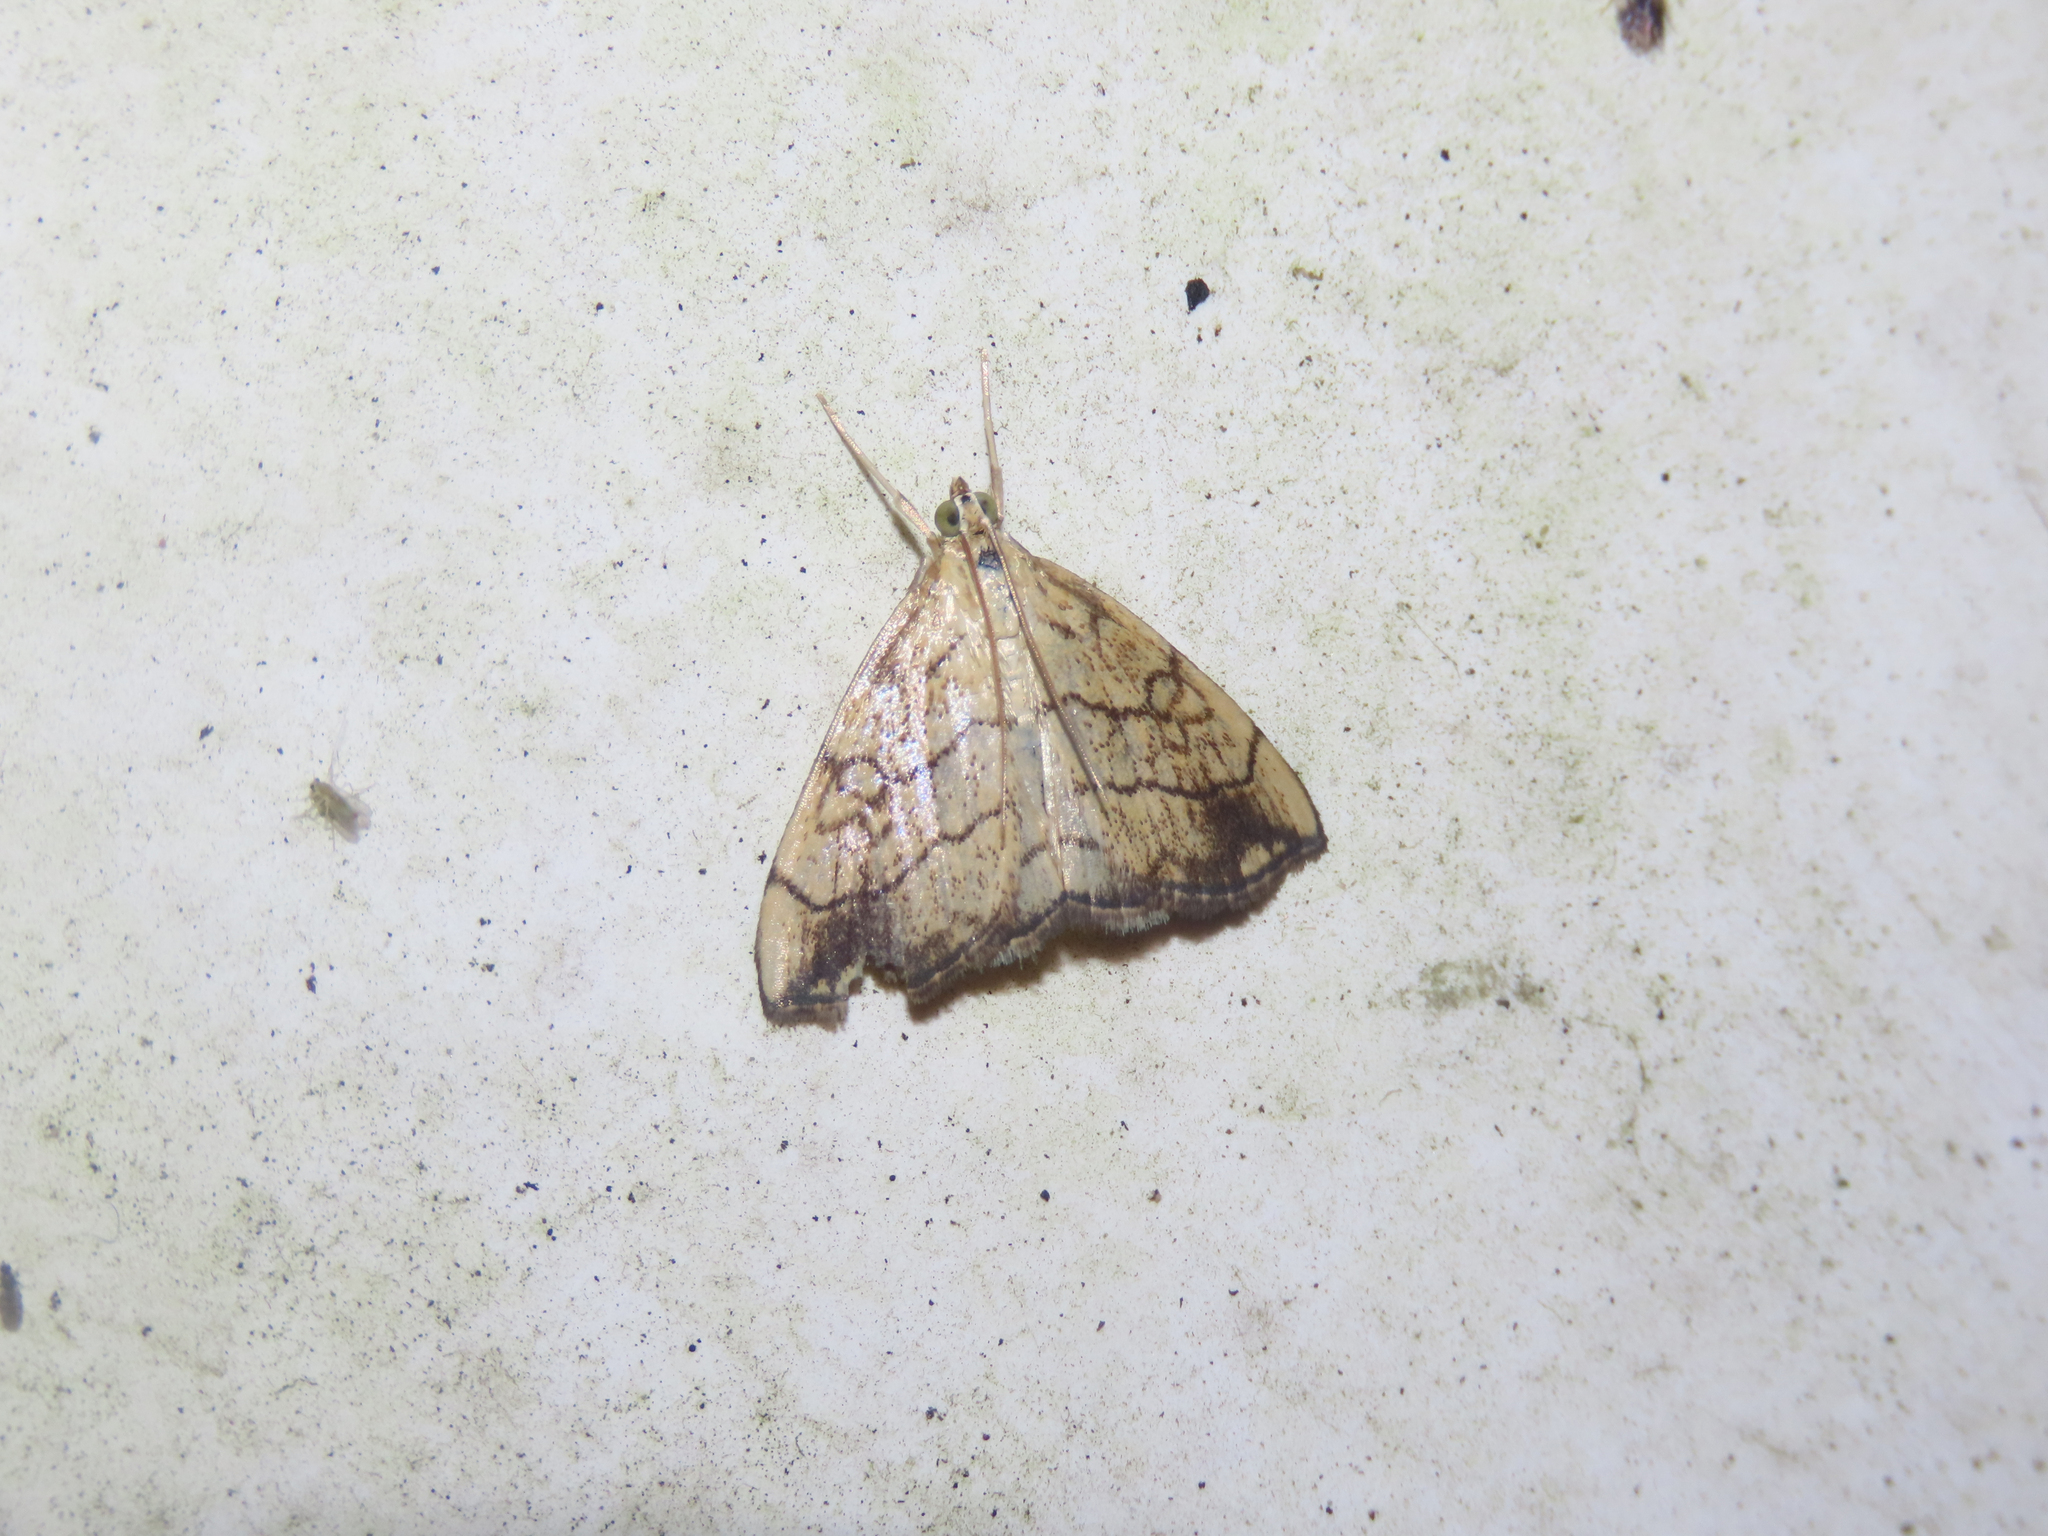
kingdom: Animalia
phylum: Arthropoda
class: Insecta
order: Lepidoptera
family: Crambidae
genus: Evergestis
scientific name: Evergestis pallidata
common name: Chequered pearl
